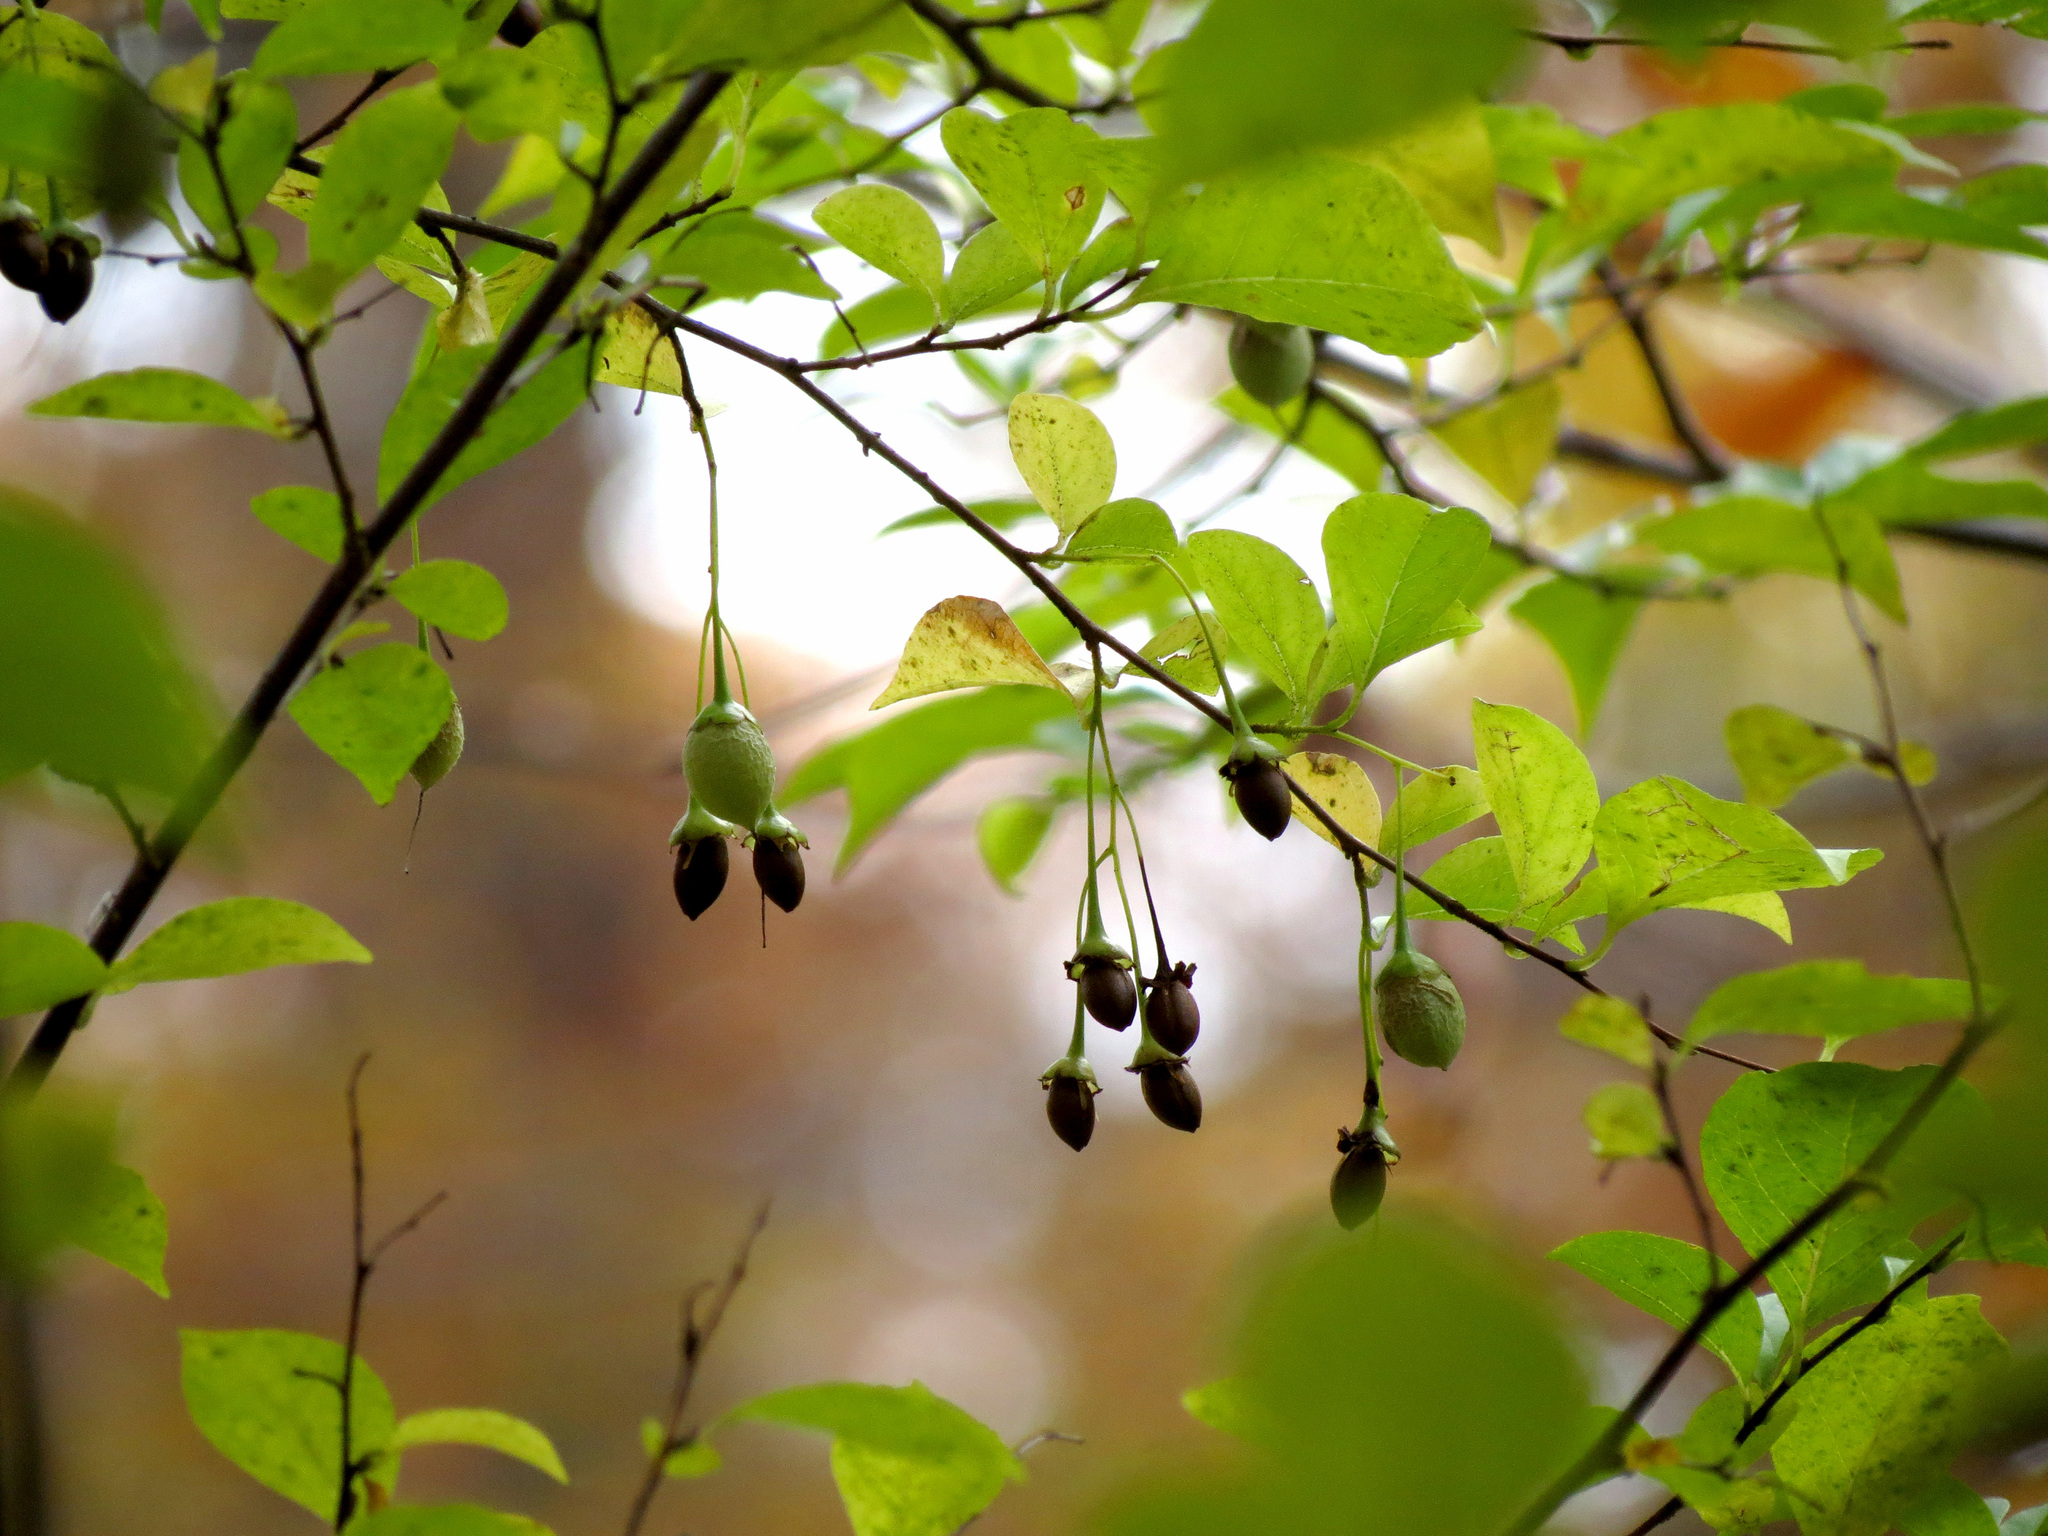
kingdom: Plantae
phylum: Tracheophyta
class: Magnoliopsida
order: Ericales
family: Styracaceae
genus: Styrax
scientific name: Styrax japonicus
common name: Japanese snowbell
